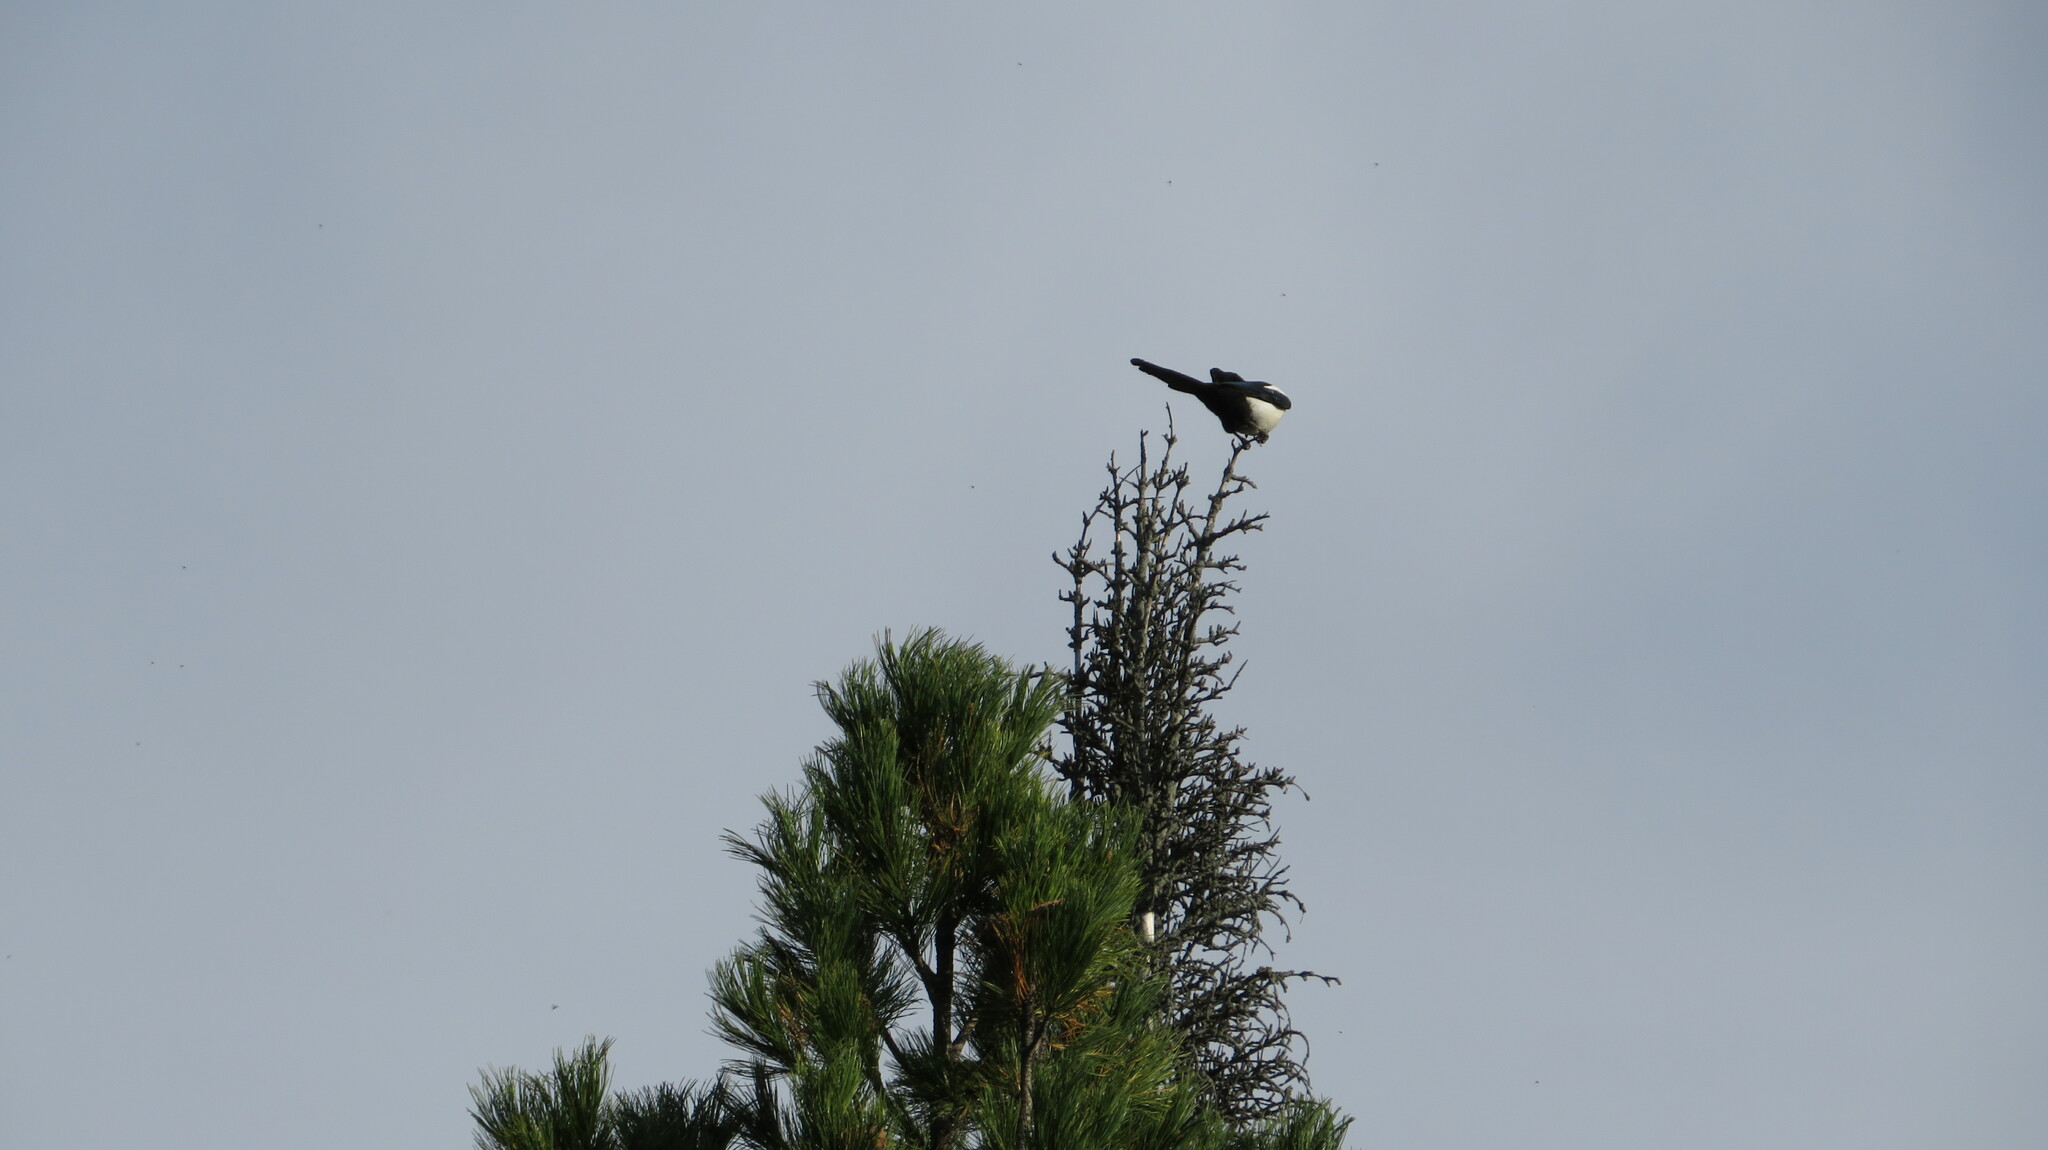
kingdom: Animalia
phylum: Chordata
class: Aves
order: Passeriformes
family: Corvidae
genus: Pica
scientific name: Pica pica
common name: Eurasian magpie
